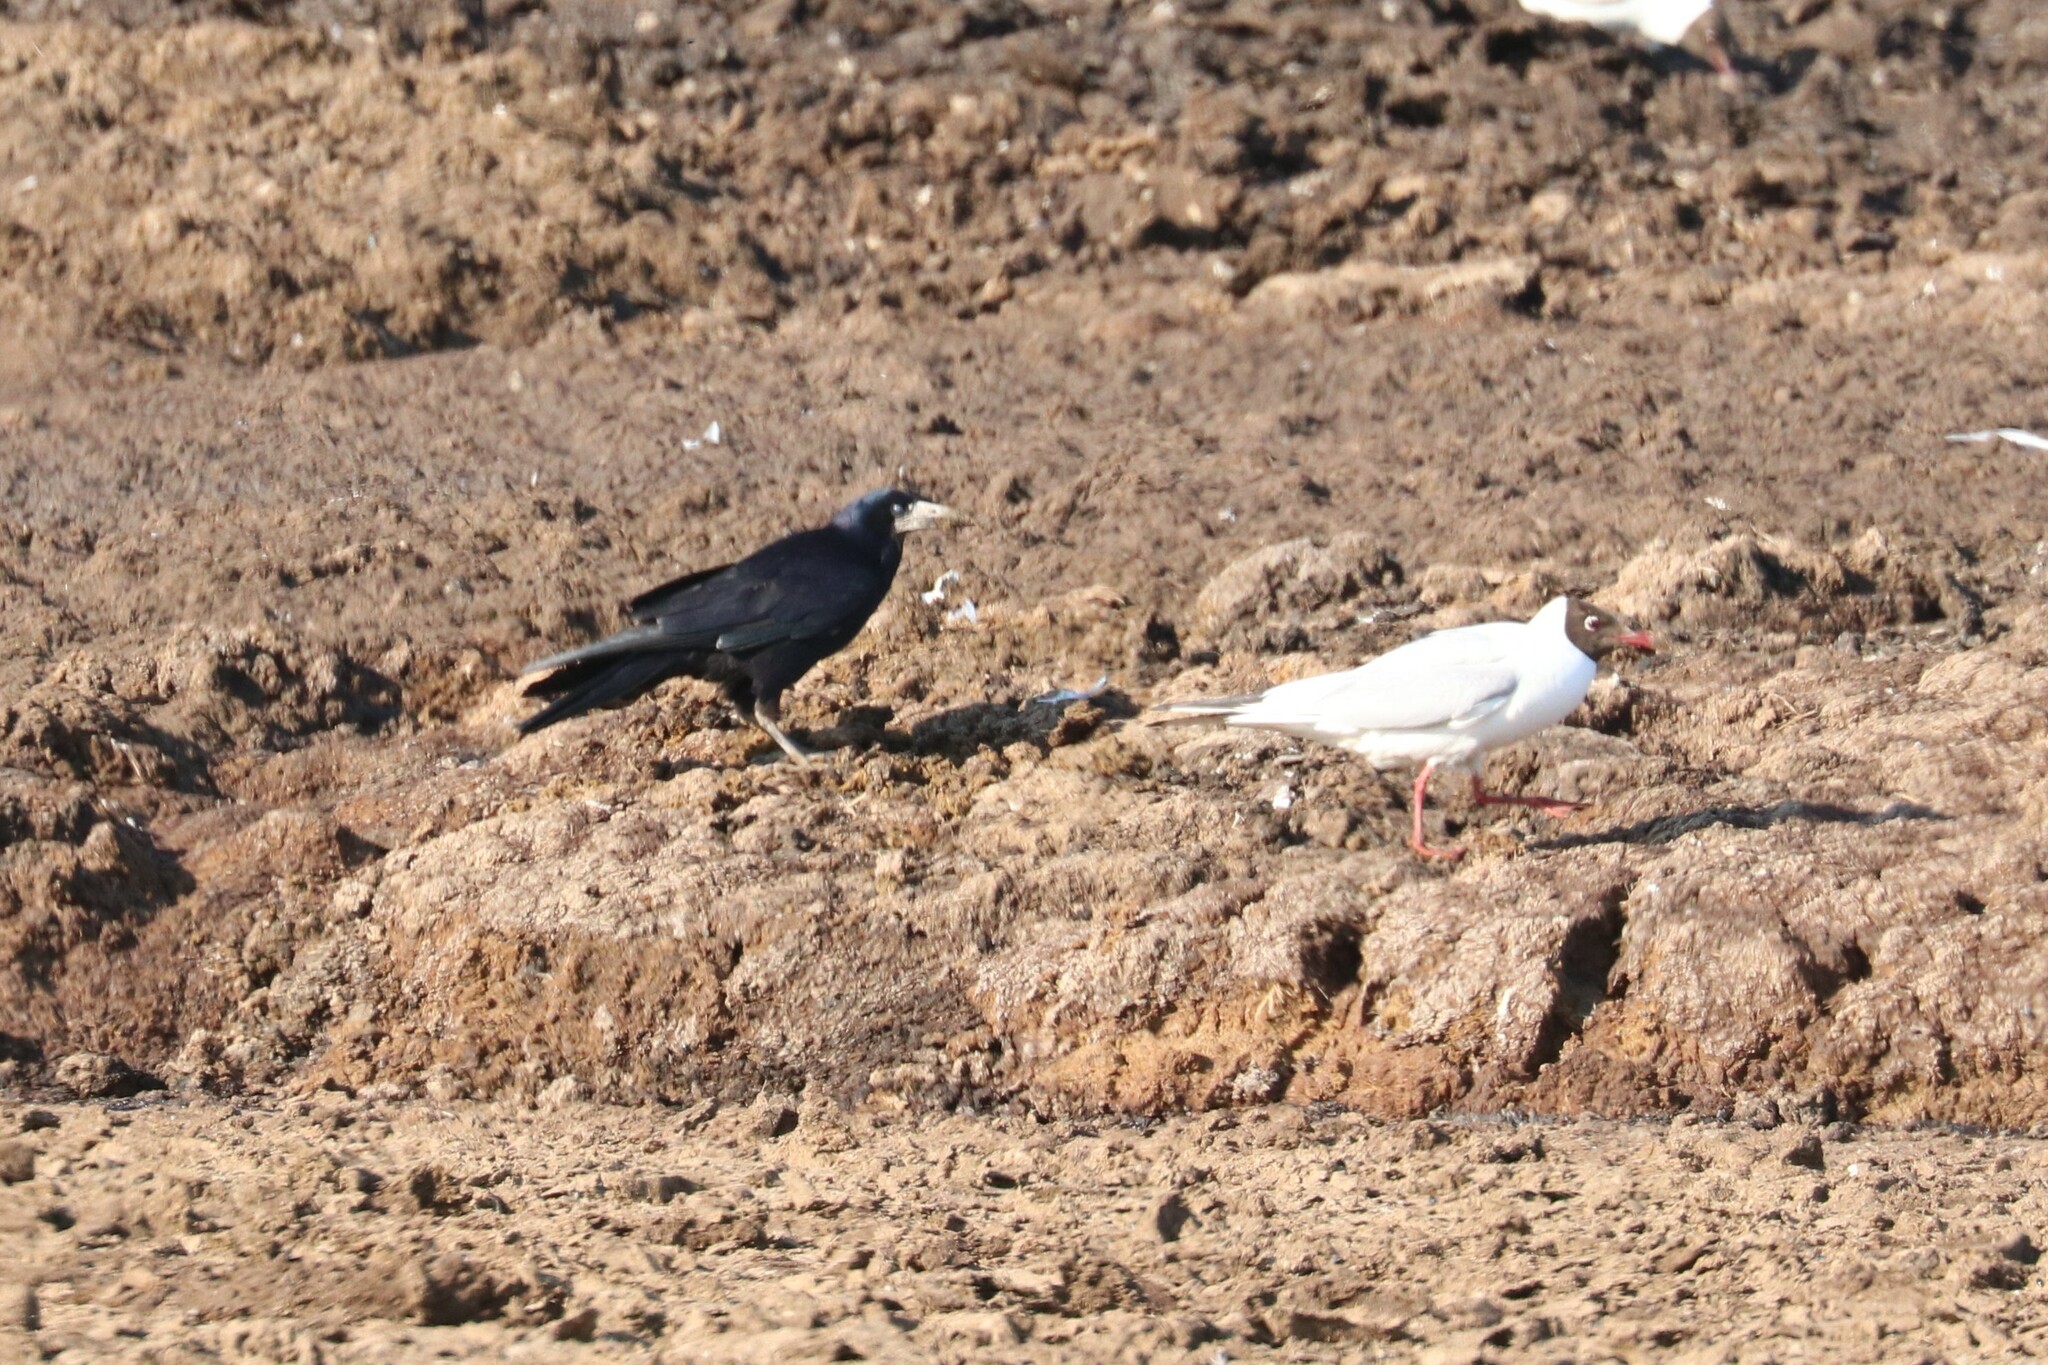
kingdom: Animalia
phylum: Chordata
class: Aves
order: Charadriiformes
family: Laridae
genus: Chroicocephalus
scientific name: Chroicocephalus ridibundus
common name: Black-headed gull
